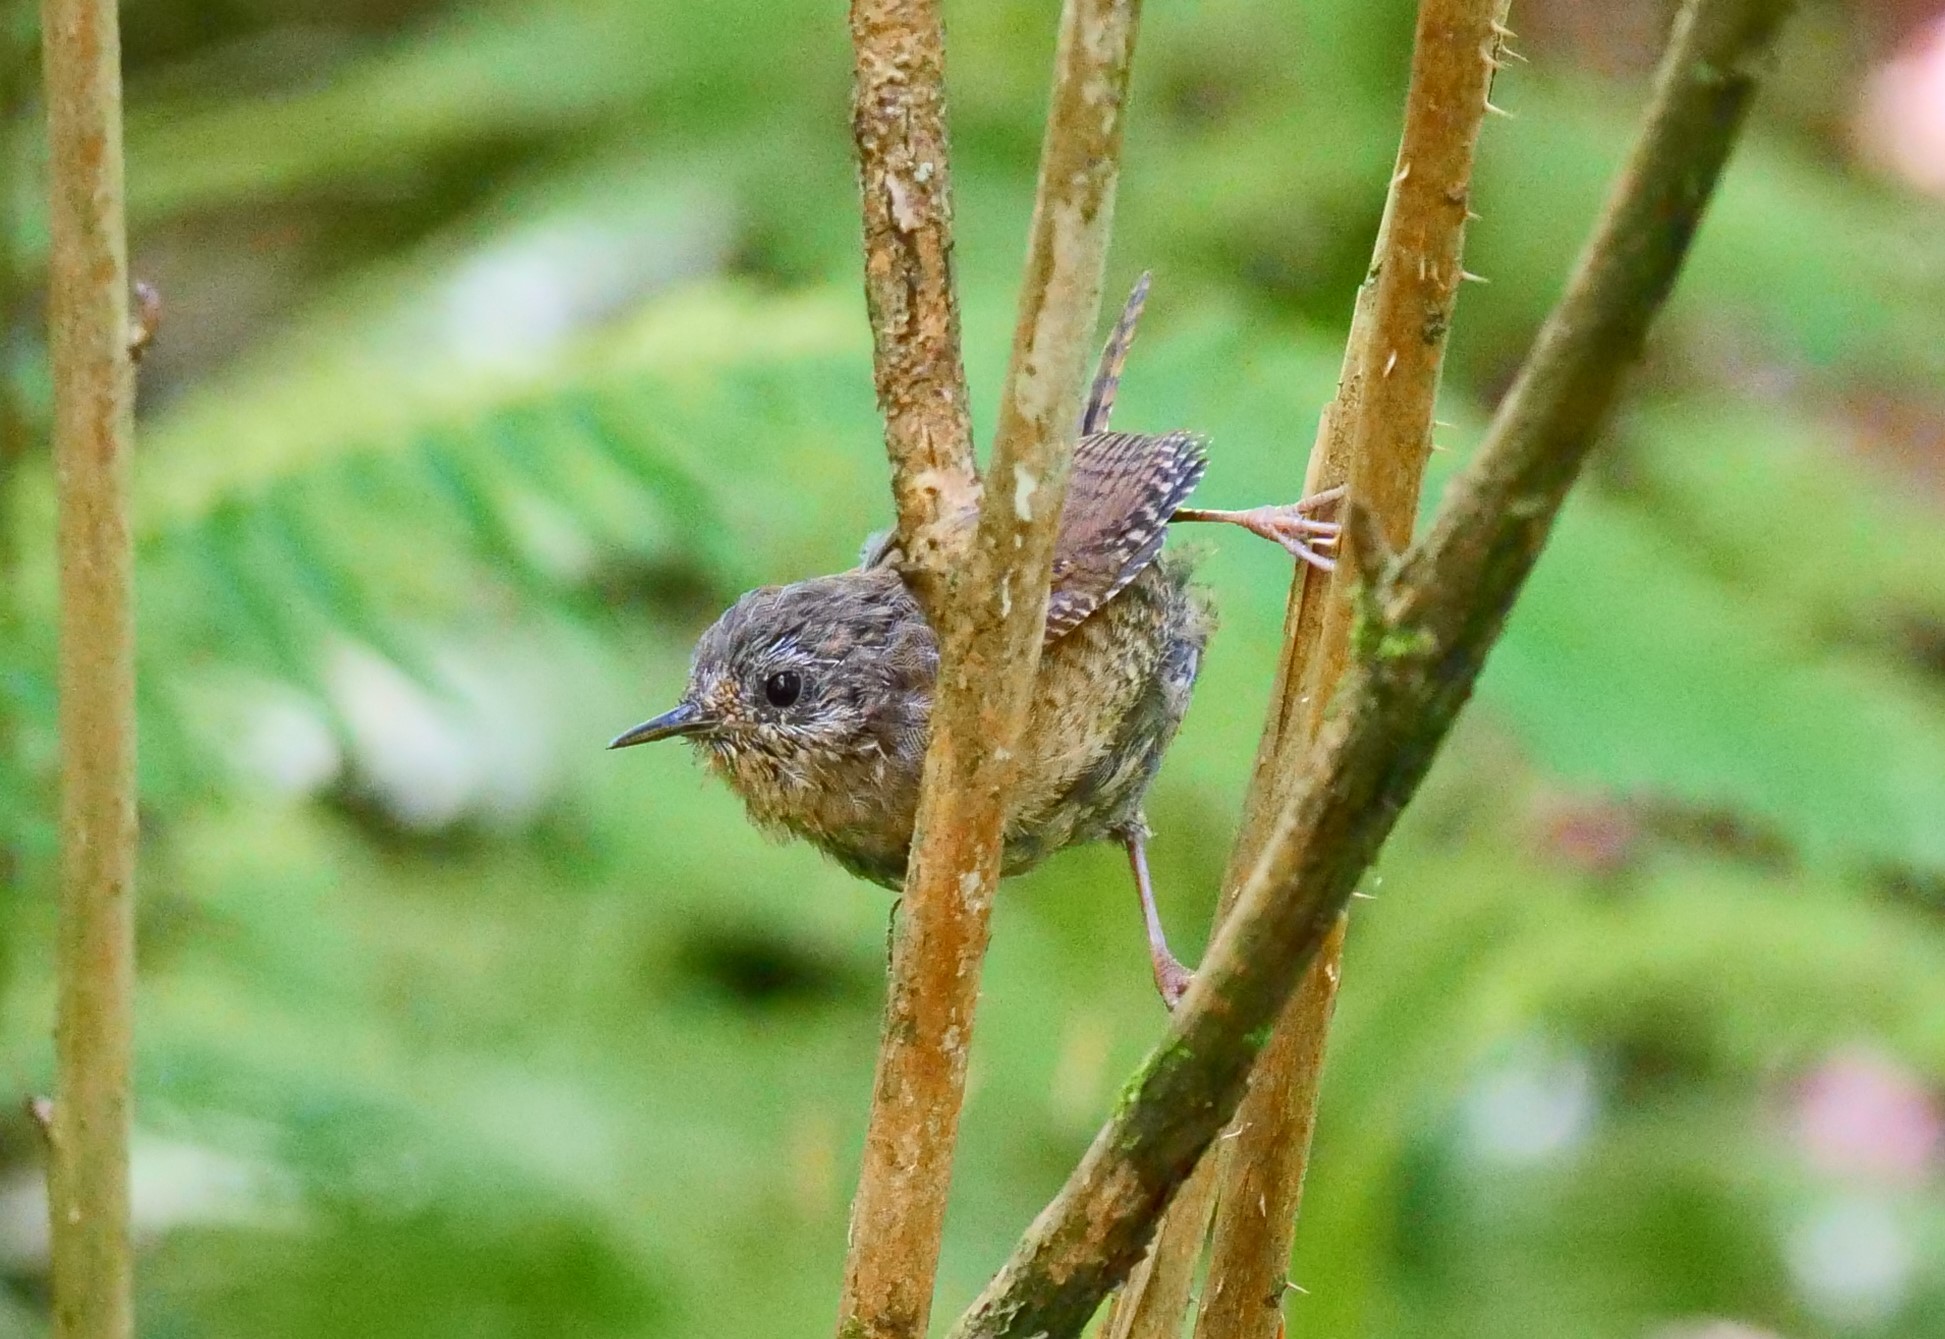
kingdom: Animalia
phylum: Chordata
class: Aves
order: Passeriformes
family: Troglodytidae
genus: Troglodytes
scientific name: Troglodytes pacificus
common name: Pacific wren
